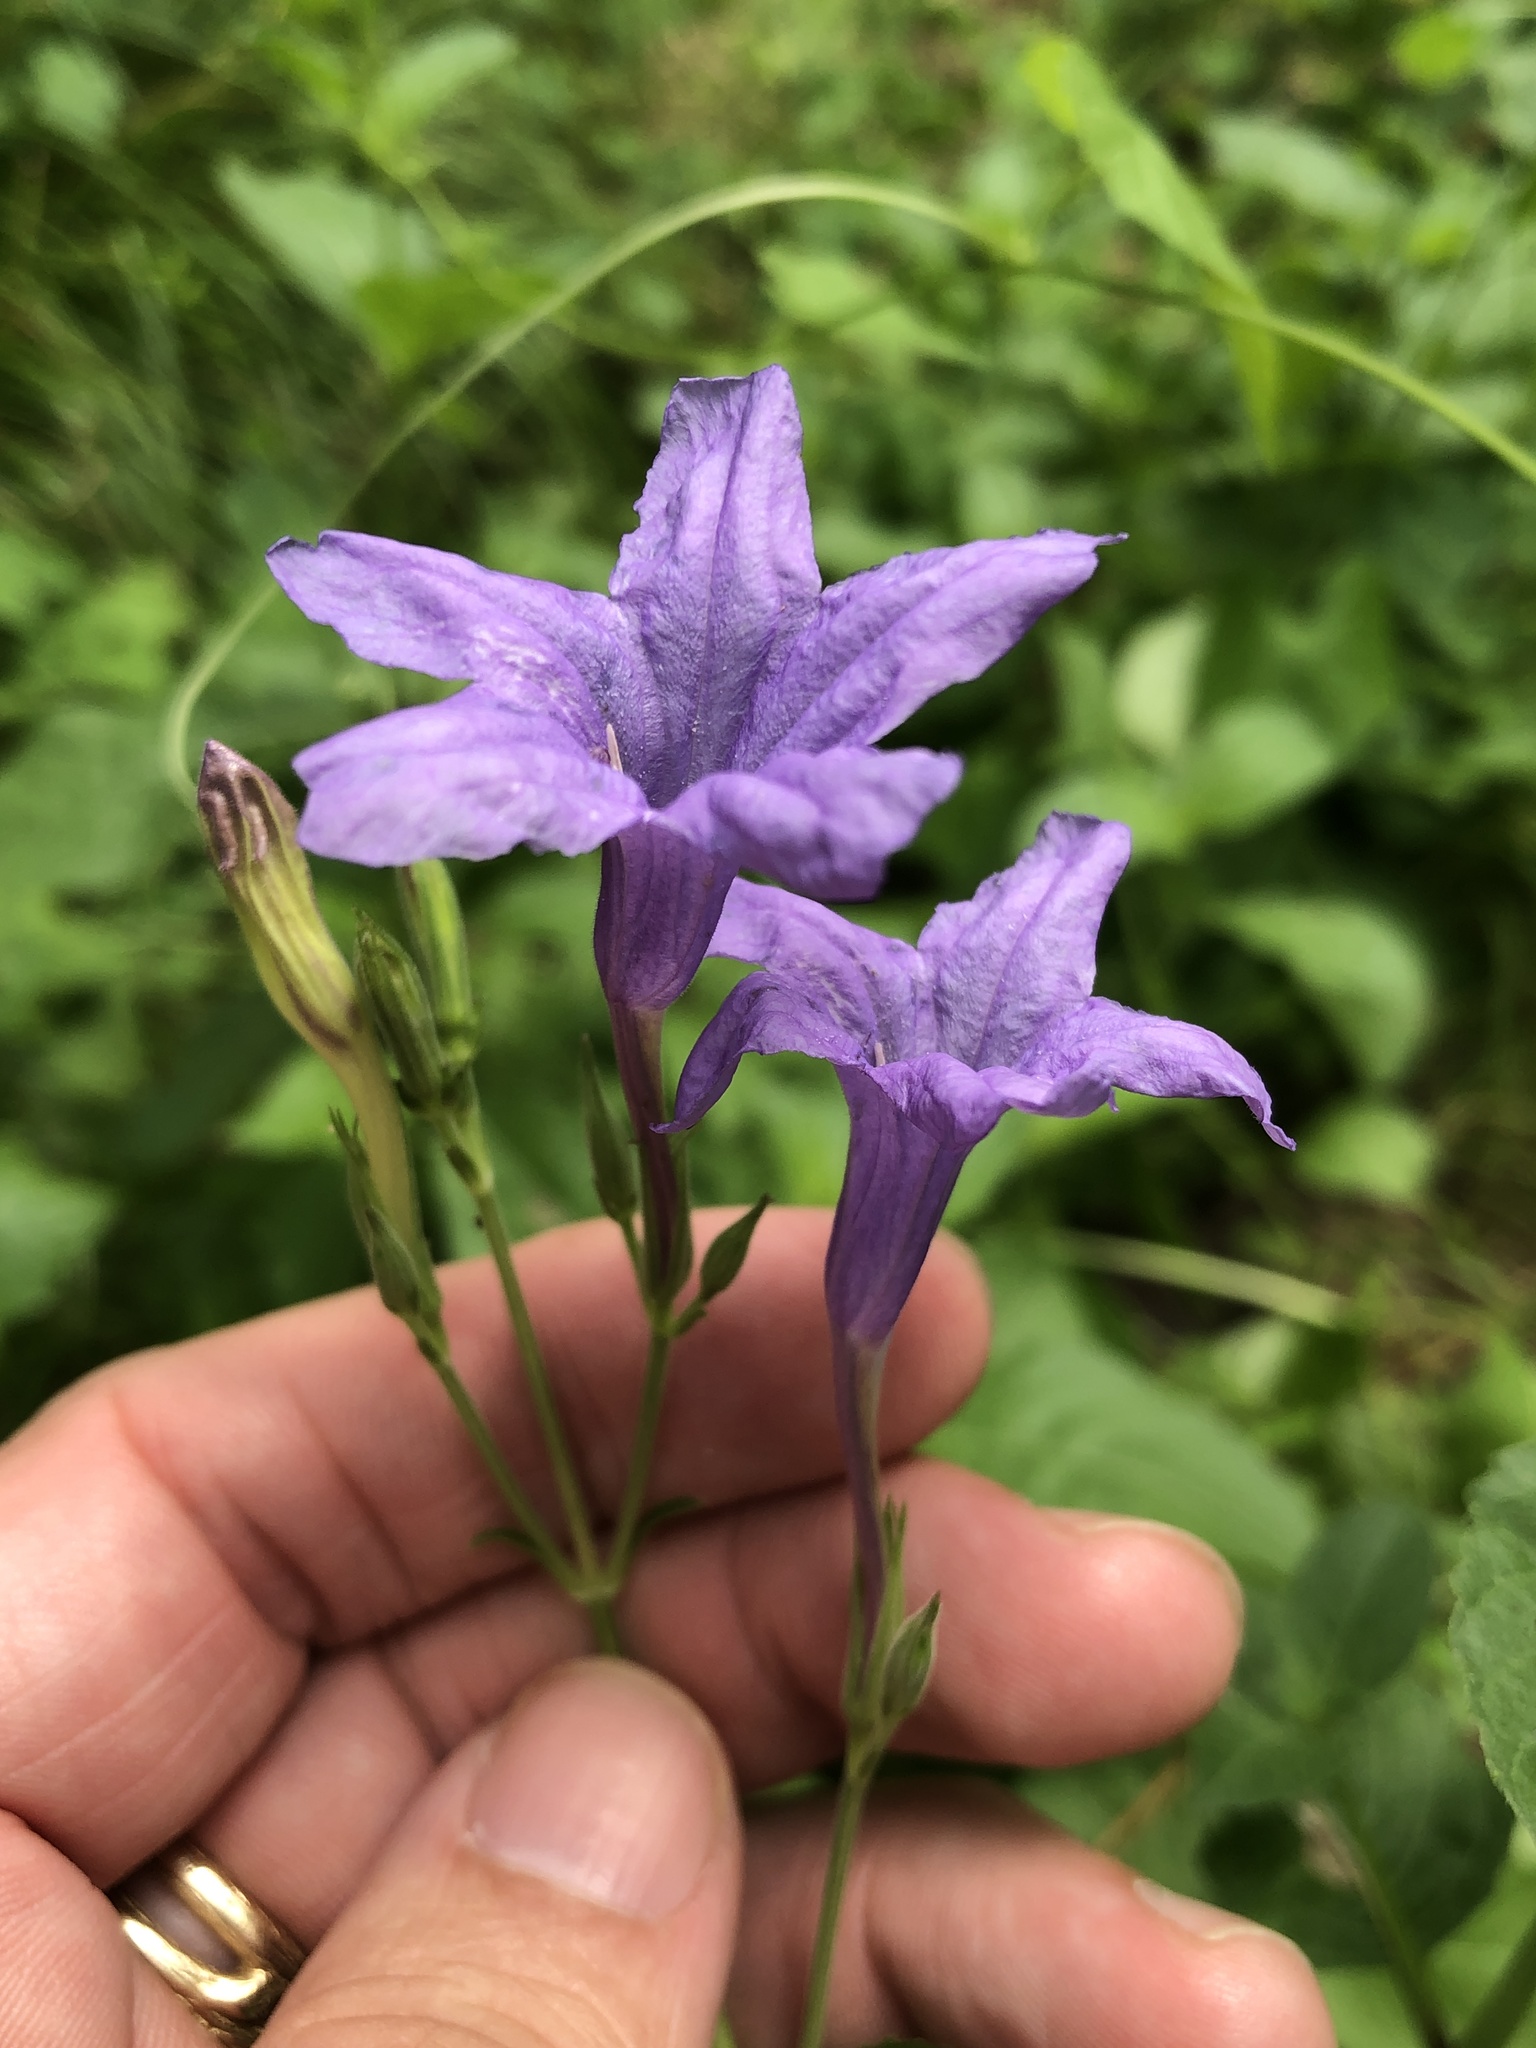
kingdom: Plantae
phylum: Tracheophyta
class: Magnoliopsida
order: Lamiales
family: Acanthaceae
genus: Ruellia
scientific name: Ruellia ciliatiflora
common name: Hairyflower wild petunia
